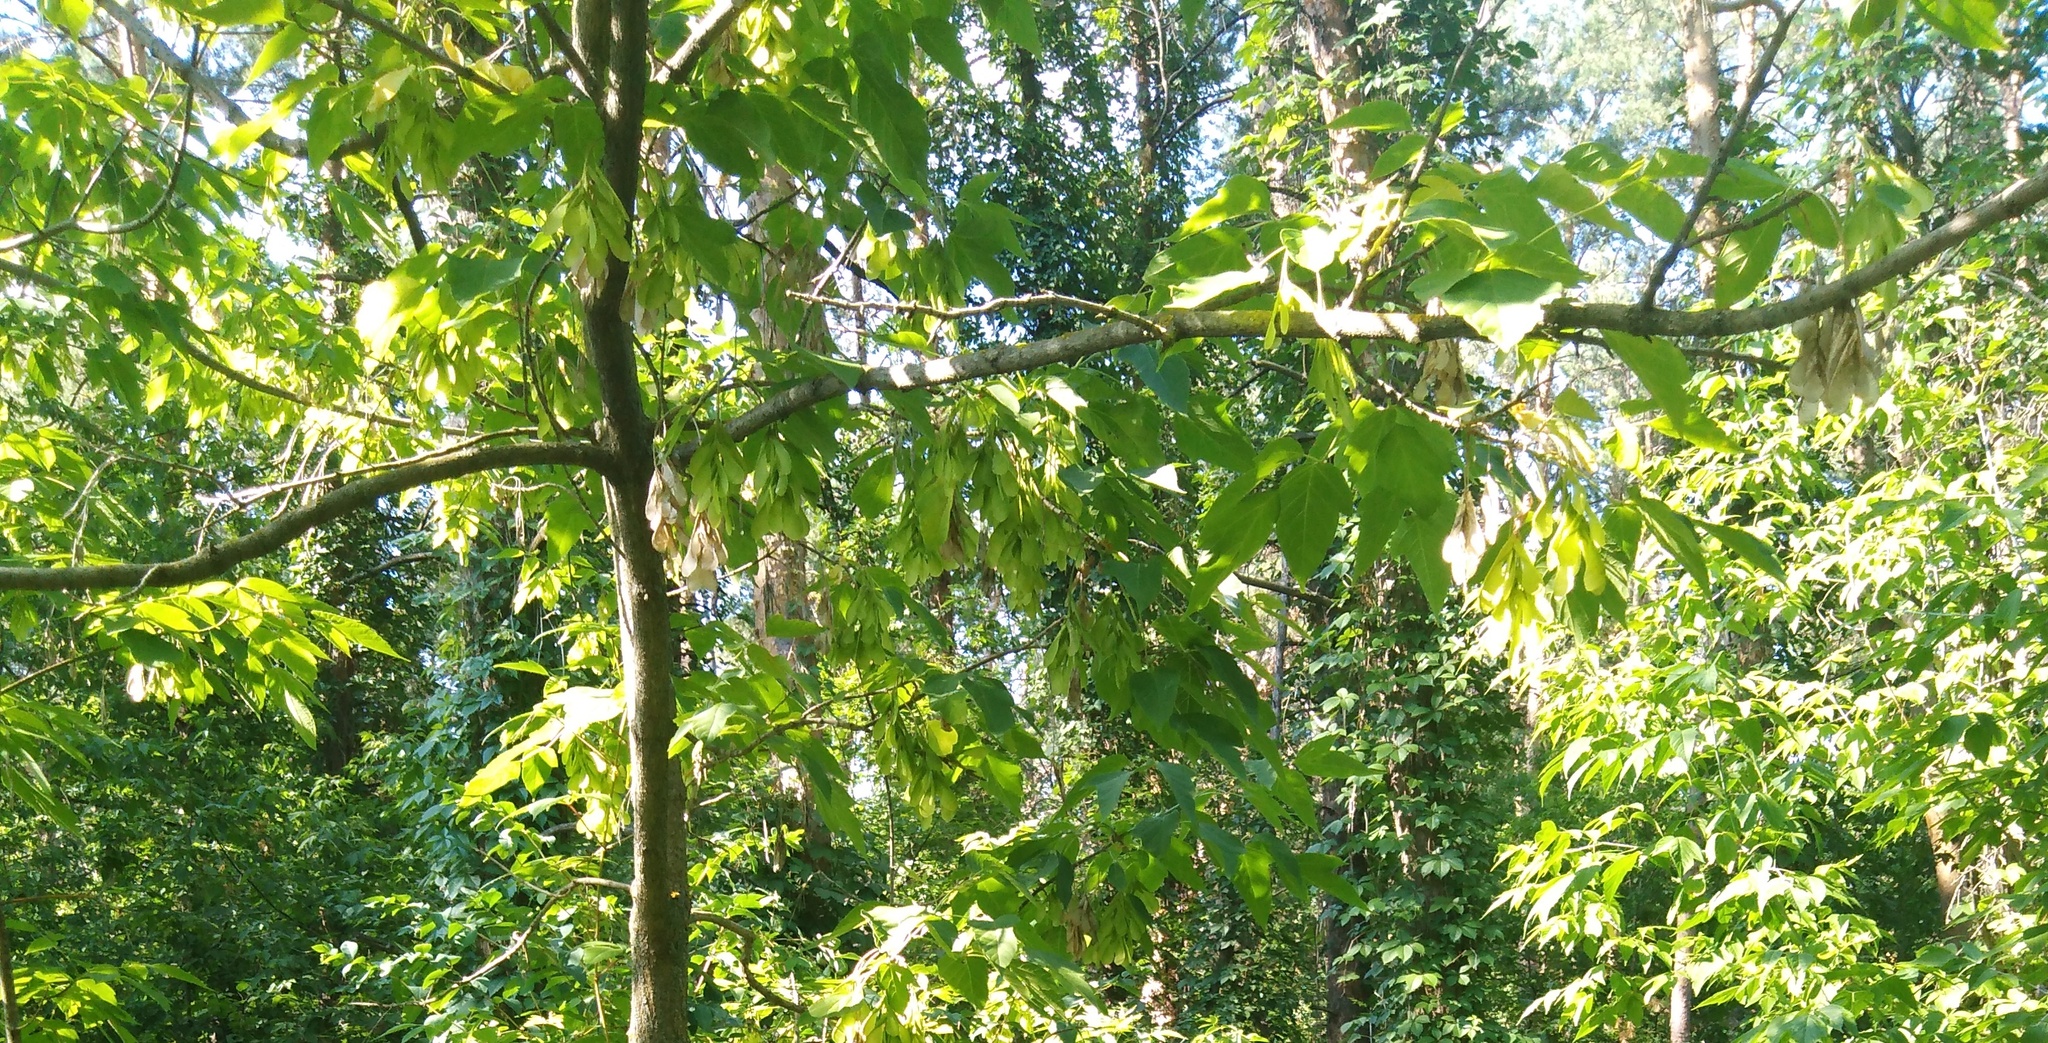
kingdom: Plantae
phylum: Tracheophyta
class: Magnoliopsida
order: Sapindales
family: Sapindaceae
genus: Acer
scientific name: Acer negundo
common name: Ashleaf maple
